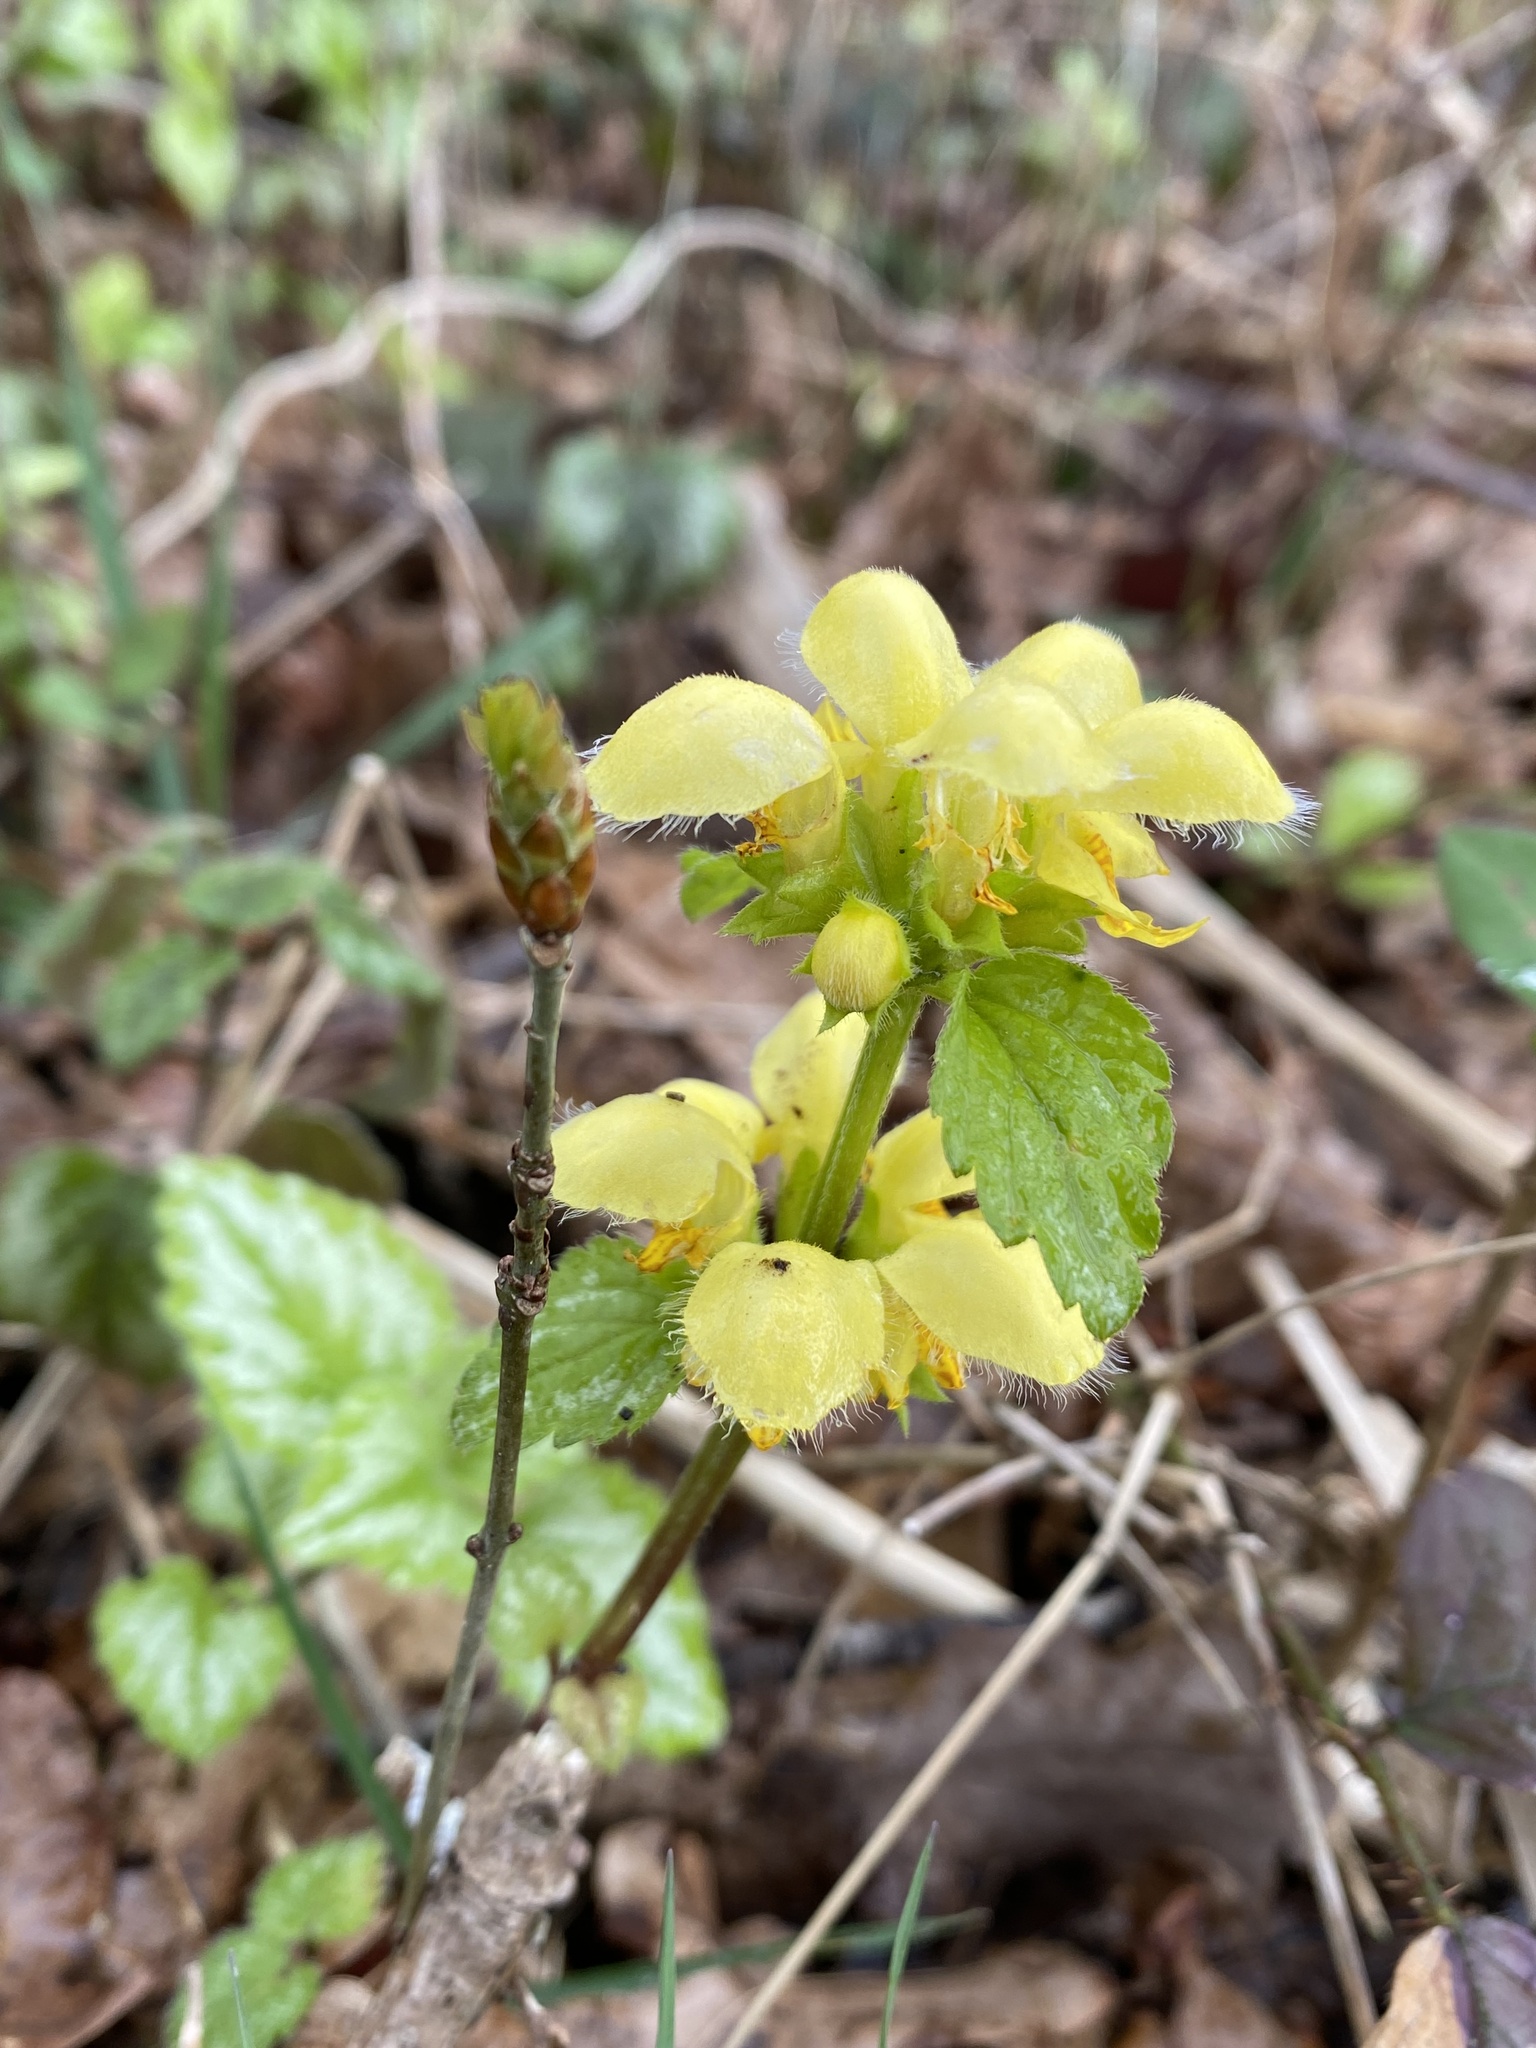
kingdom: Plantae
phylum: Tracheophyta
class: Magnoliopsida
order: Lamiales
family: Lamiaceae
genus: Lamium
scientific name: Lamium galeobdolon
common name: Yellow archangel
